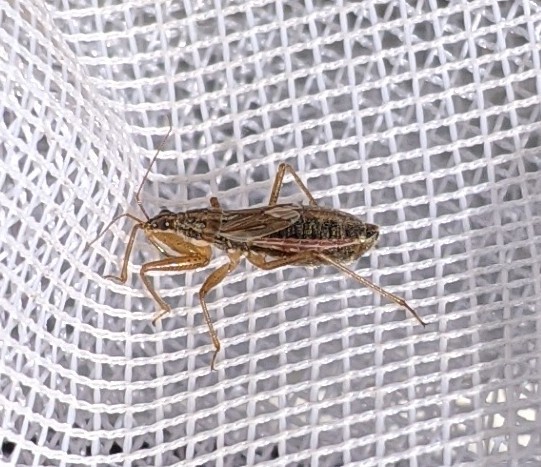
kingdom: Animalia
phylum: Arthropoda
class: Insecta
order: Hemiptera
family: Nabidae
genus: Nabis
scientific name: Nabis flavomarginatus
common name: Broad damselbug
